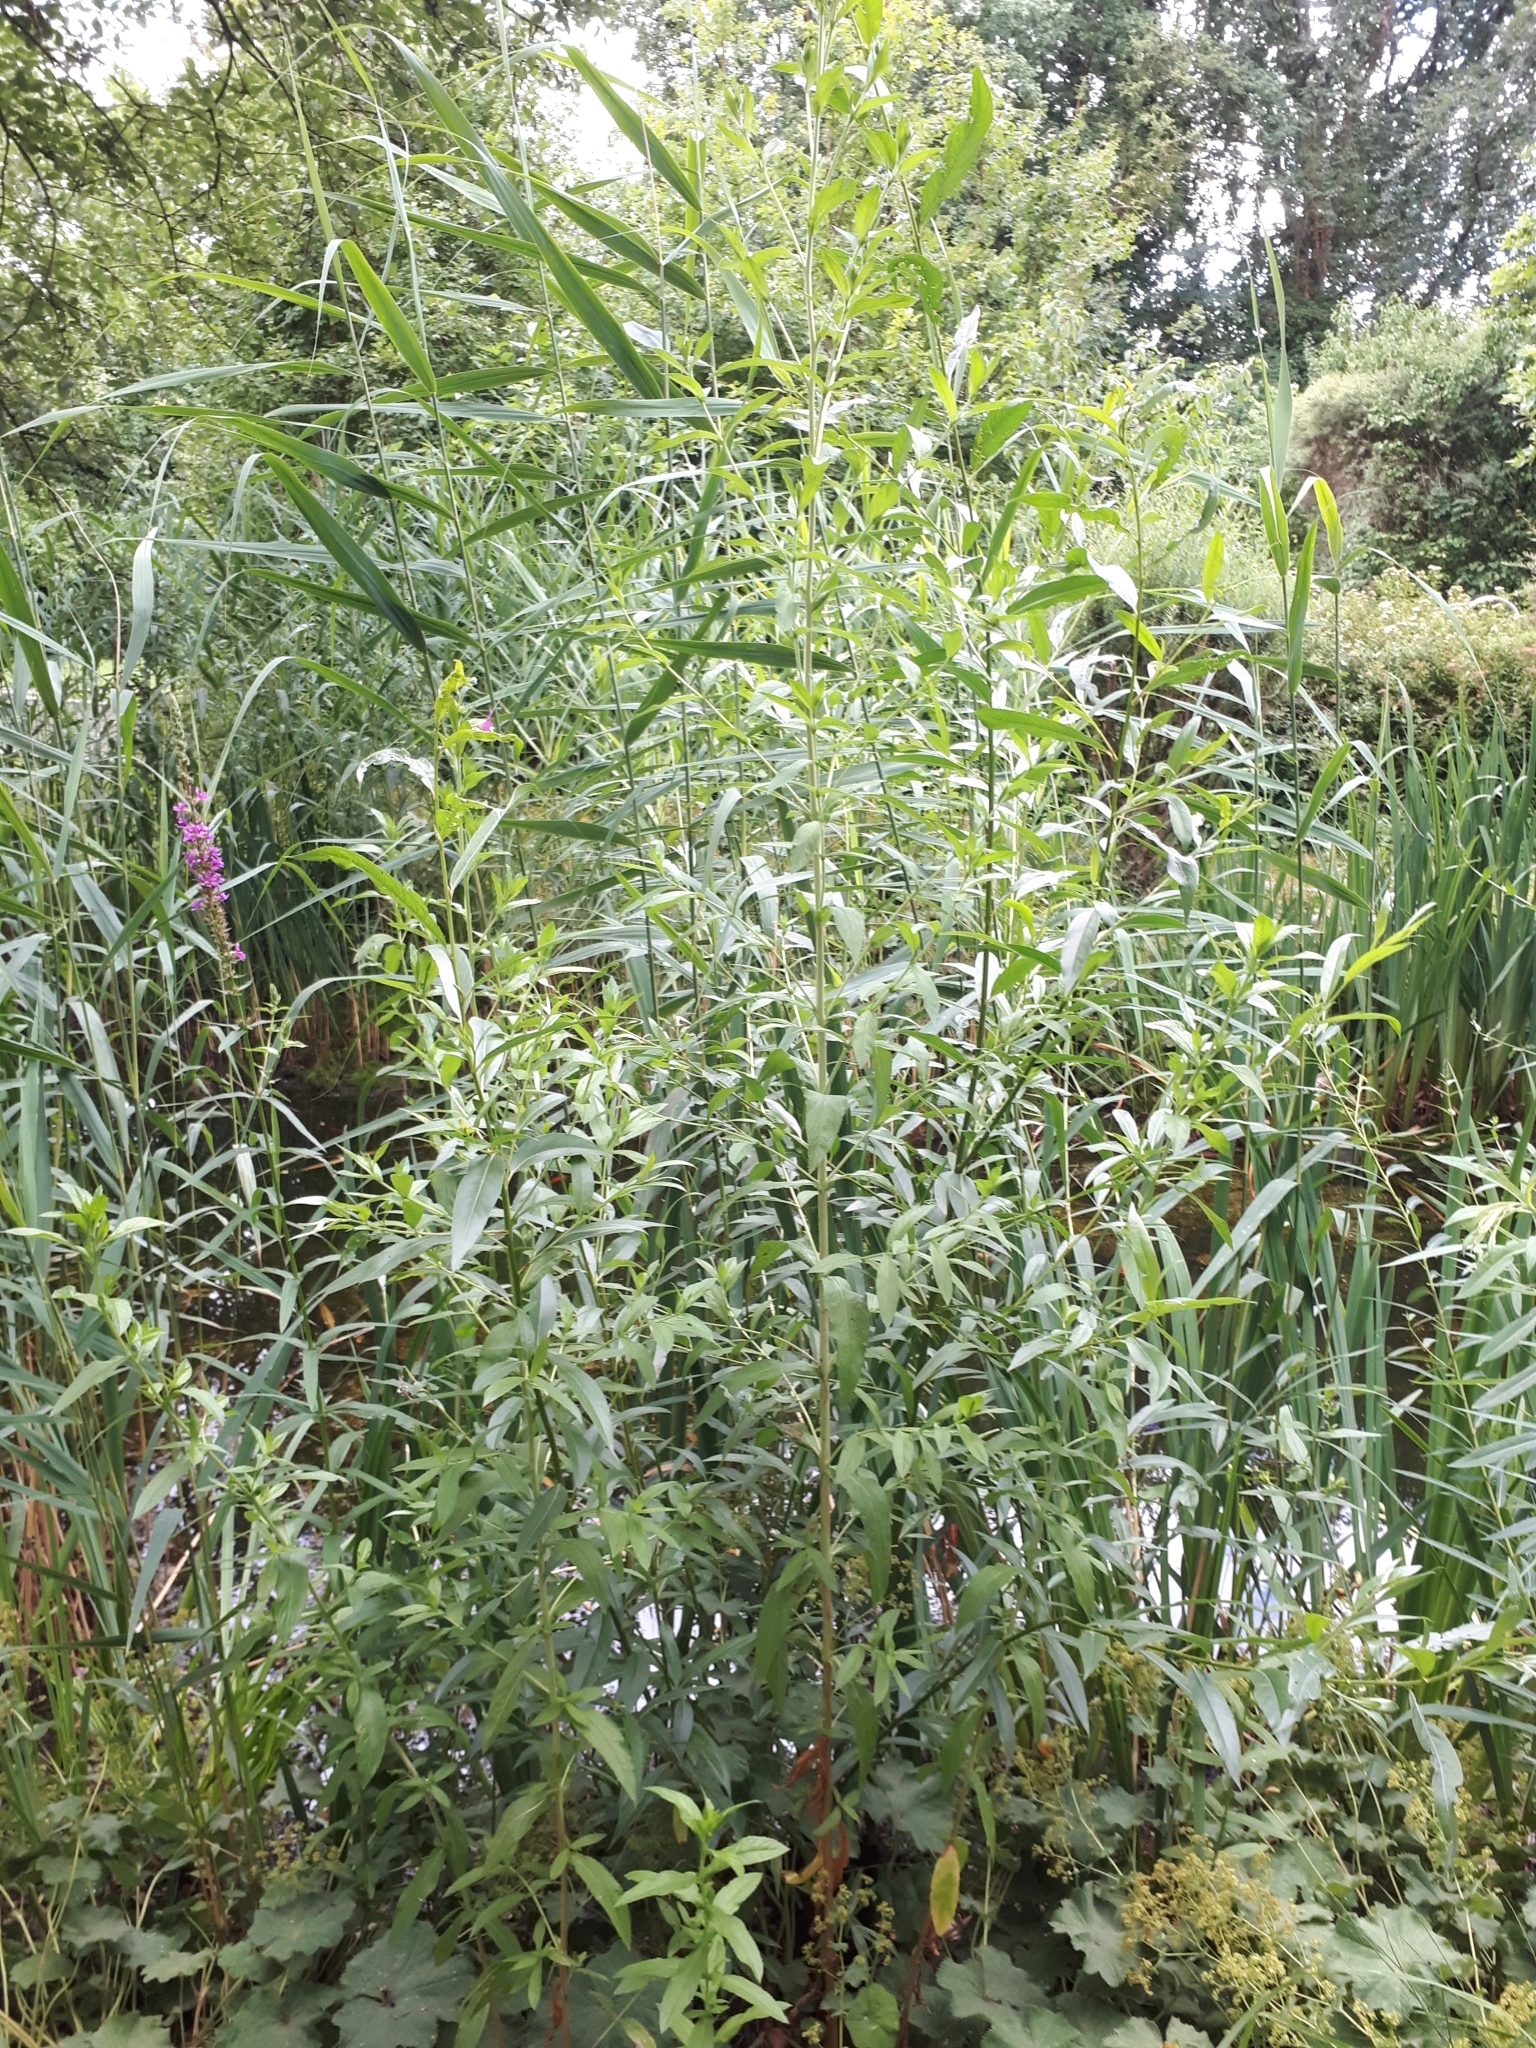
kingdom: Plantae
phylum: Tracheophyta
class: Magnoliopsida
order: Myrtales
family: Onagraceae
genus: Epilobium
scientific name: Epilobium hirsutum
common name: Great willowherb
